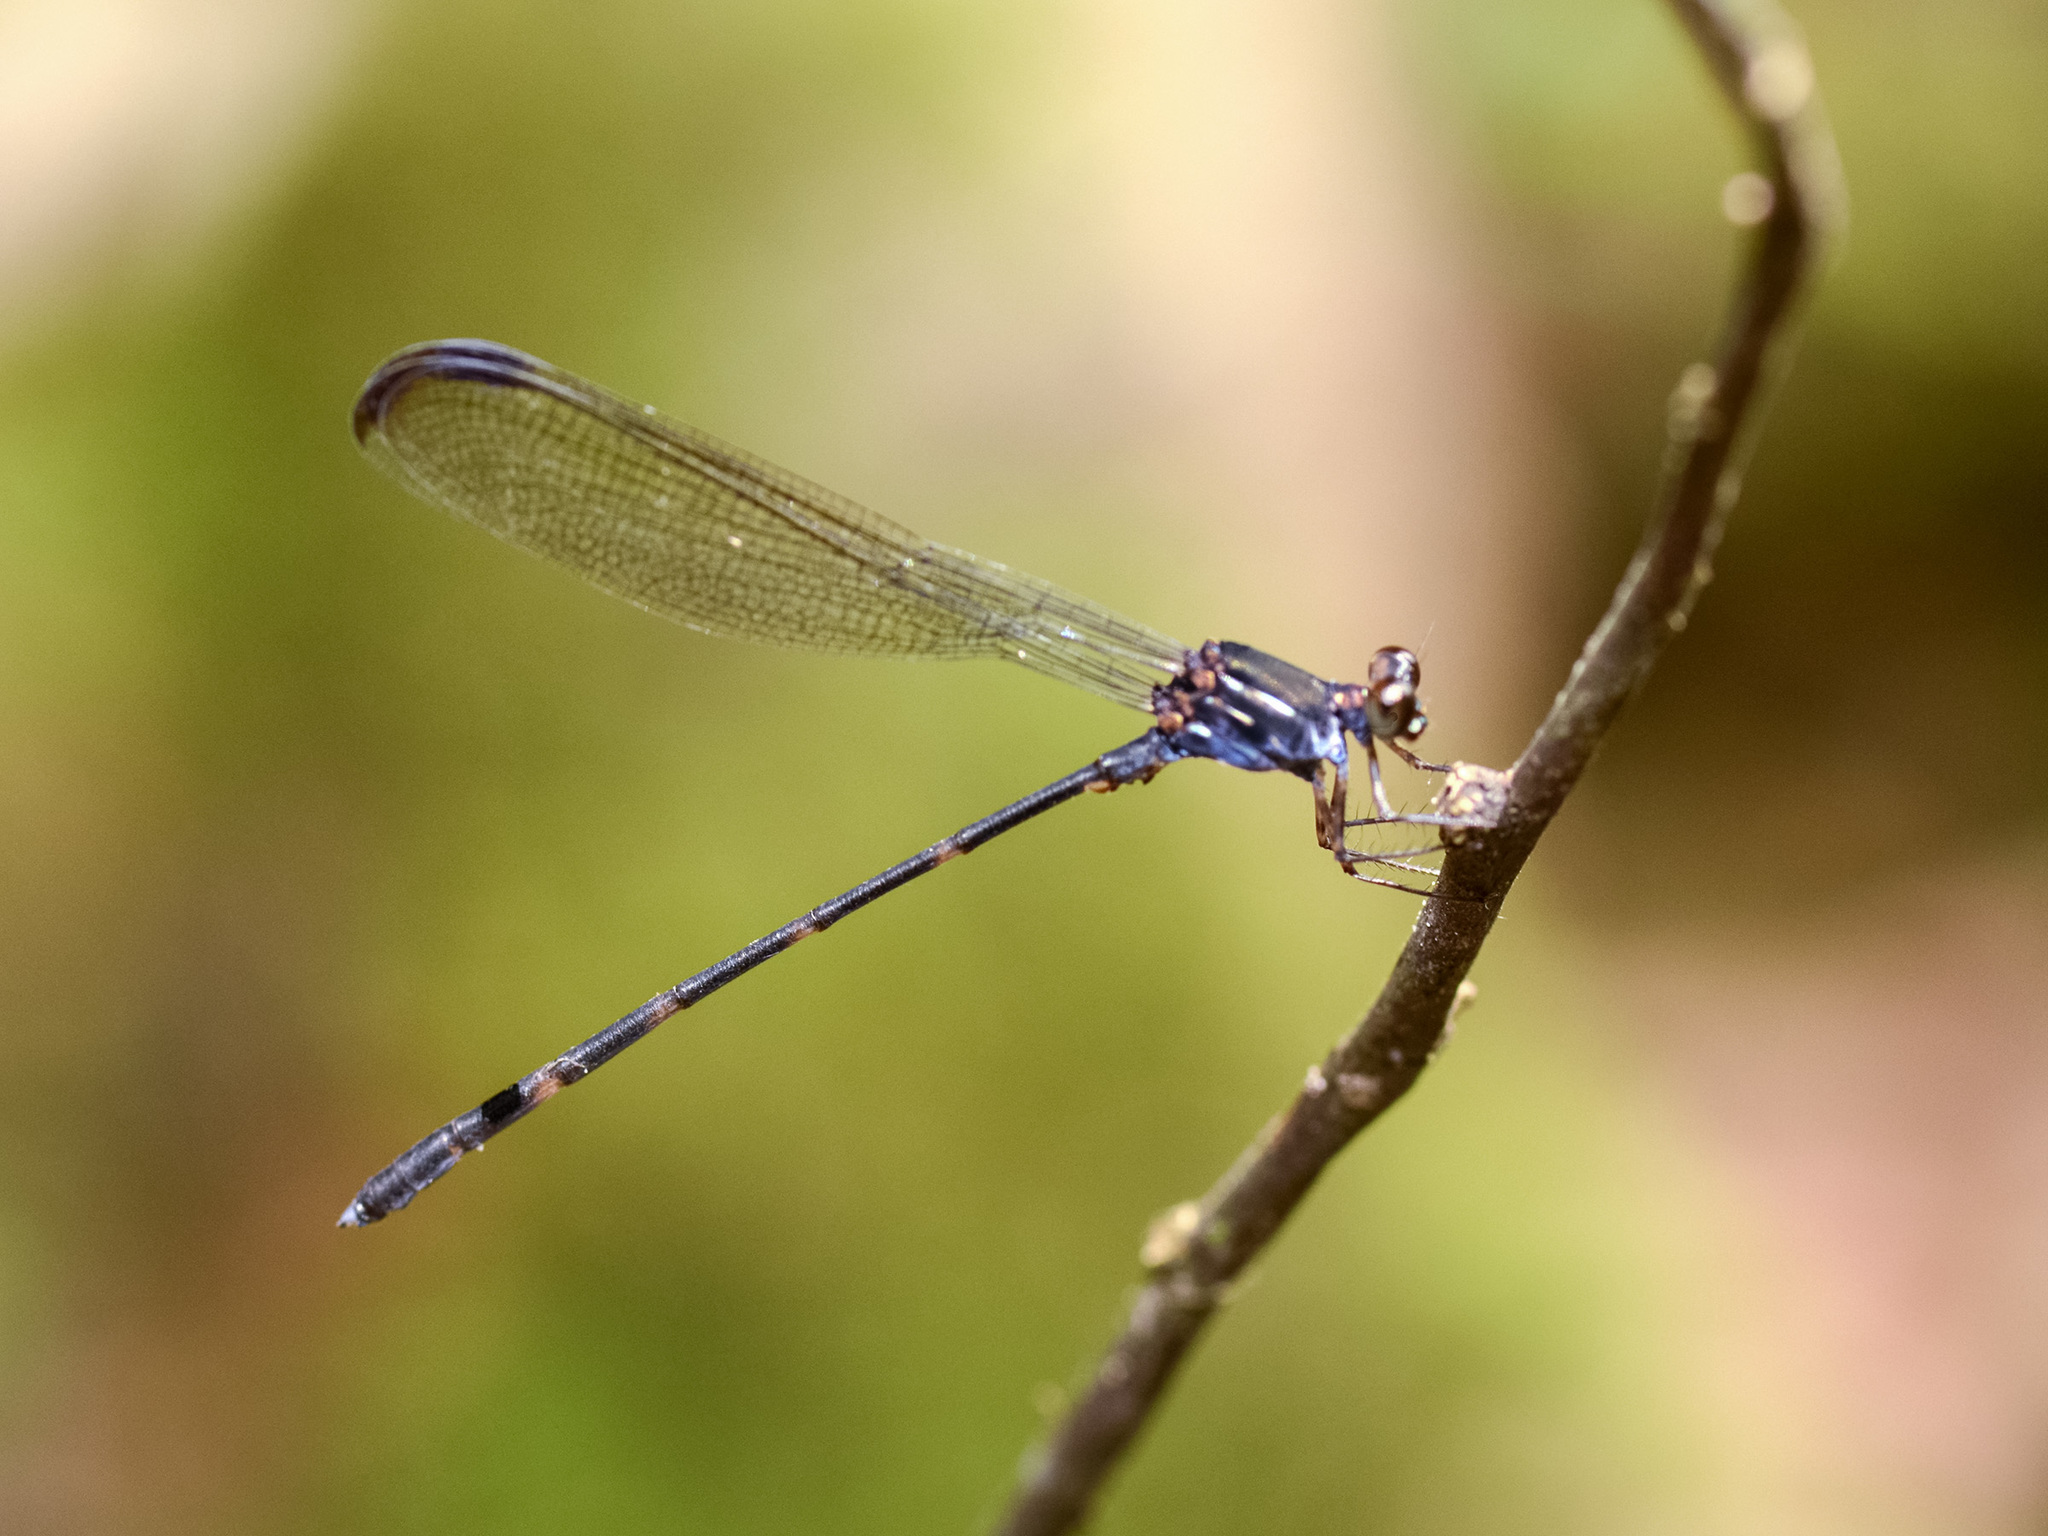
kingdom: Animalia
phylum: Arthropoda
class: Insecta
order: Odonata
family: Devadattidae
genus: Devadatta
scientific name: Devadatta argyoides
